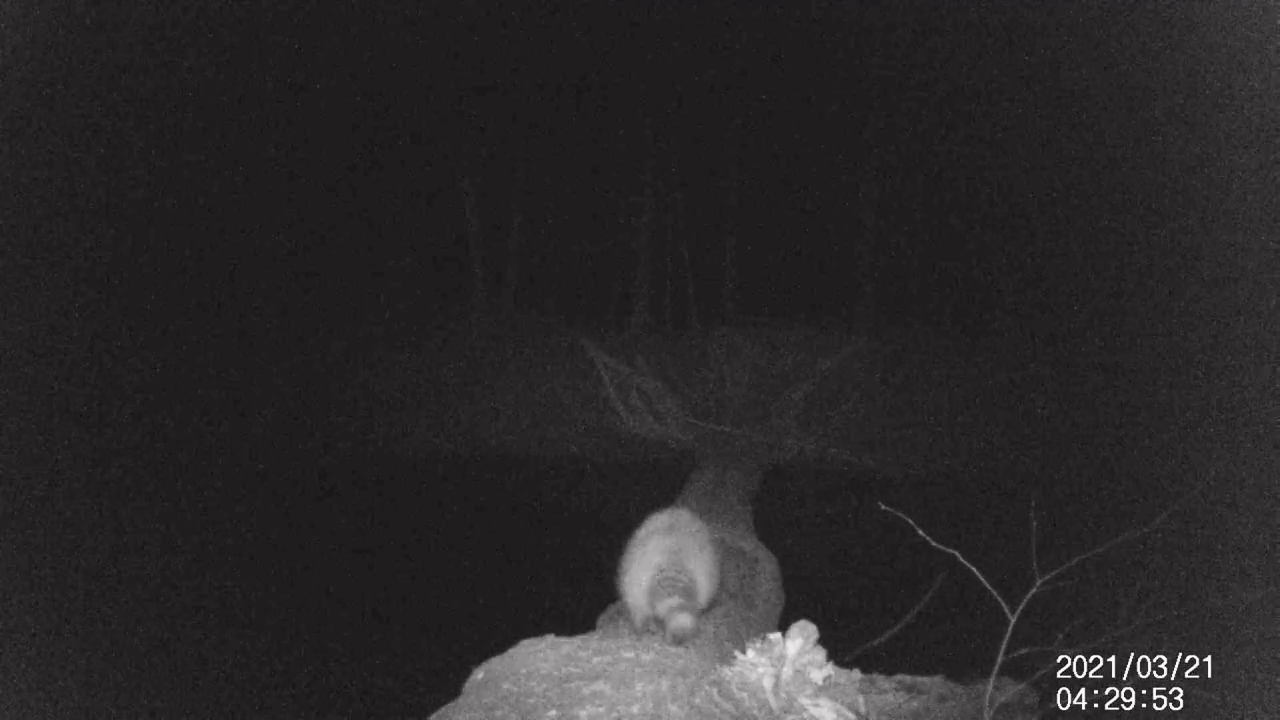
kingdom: Animalia
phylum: Chordata
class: Mammalia
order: Carnivora
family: Procyonidae
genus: Procyon
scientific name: Procyon lotor
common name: Raccoon
